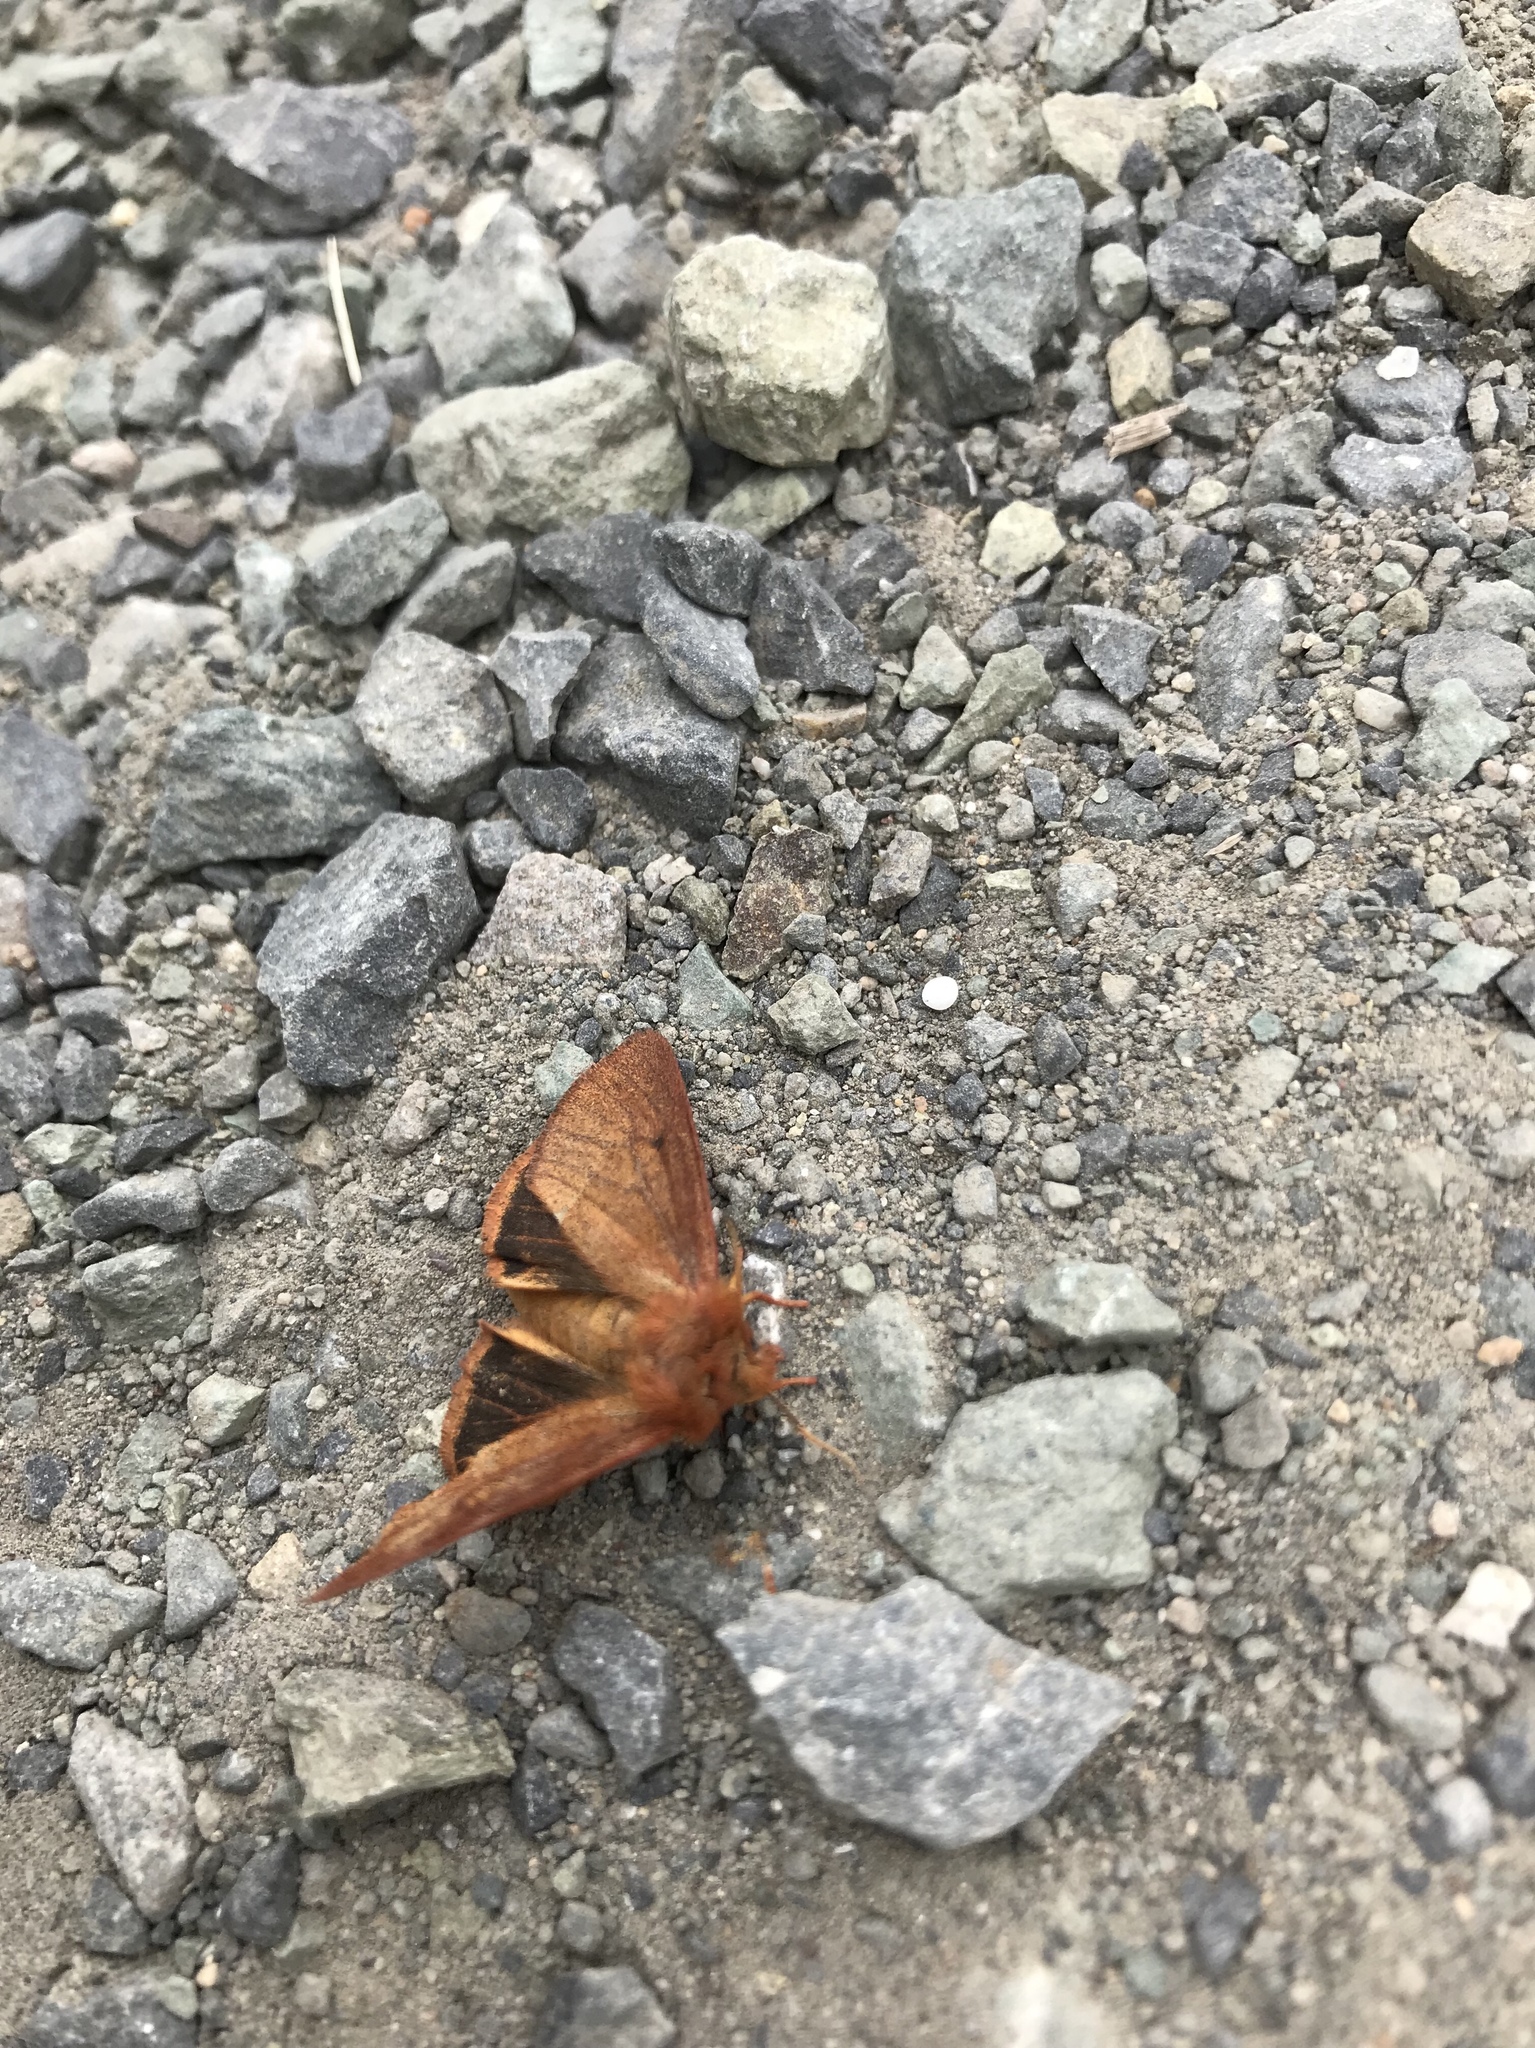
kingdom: Animalia
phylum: Arthropoda
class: Insecta
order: Lepidoptera
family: Erebidae
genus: Spilosoma
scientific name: Spilosoma vagans
